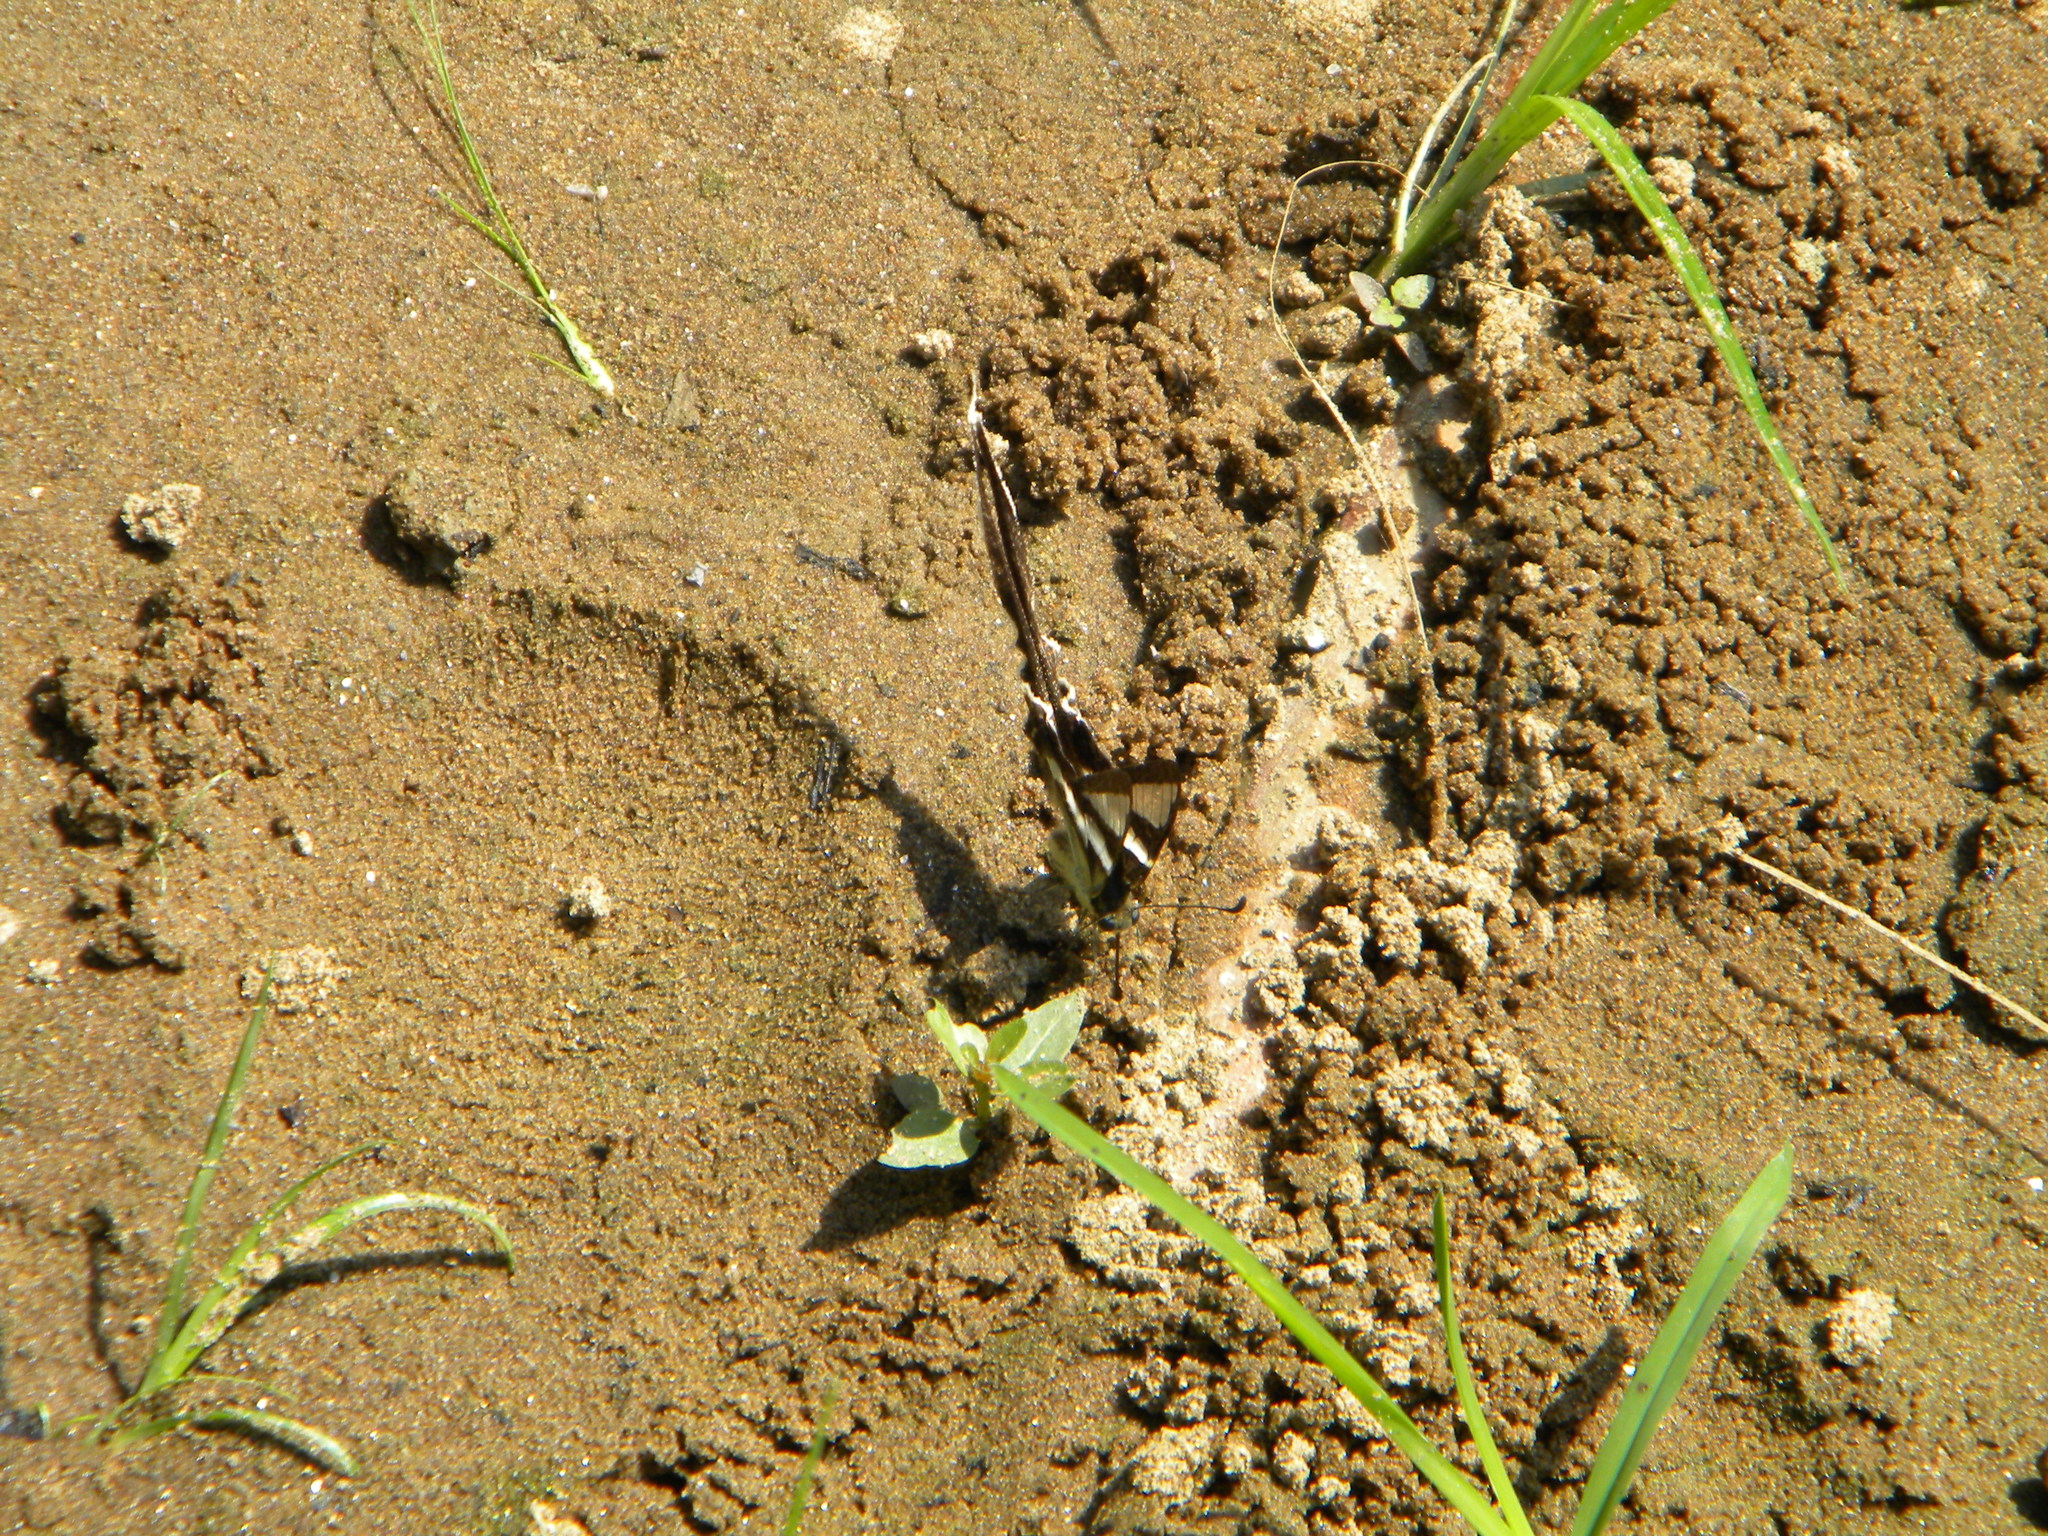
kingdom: Animalia
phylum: Arthropoda
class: Insecta
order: Lepidoptera
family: Papilionidae
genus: Lamproptera
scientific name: Lamproptera curius
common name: White dragontail
